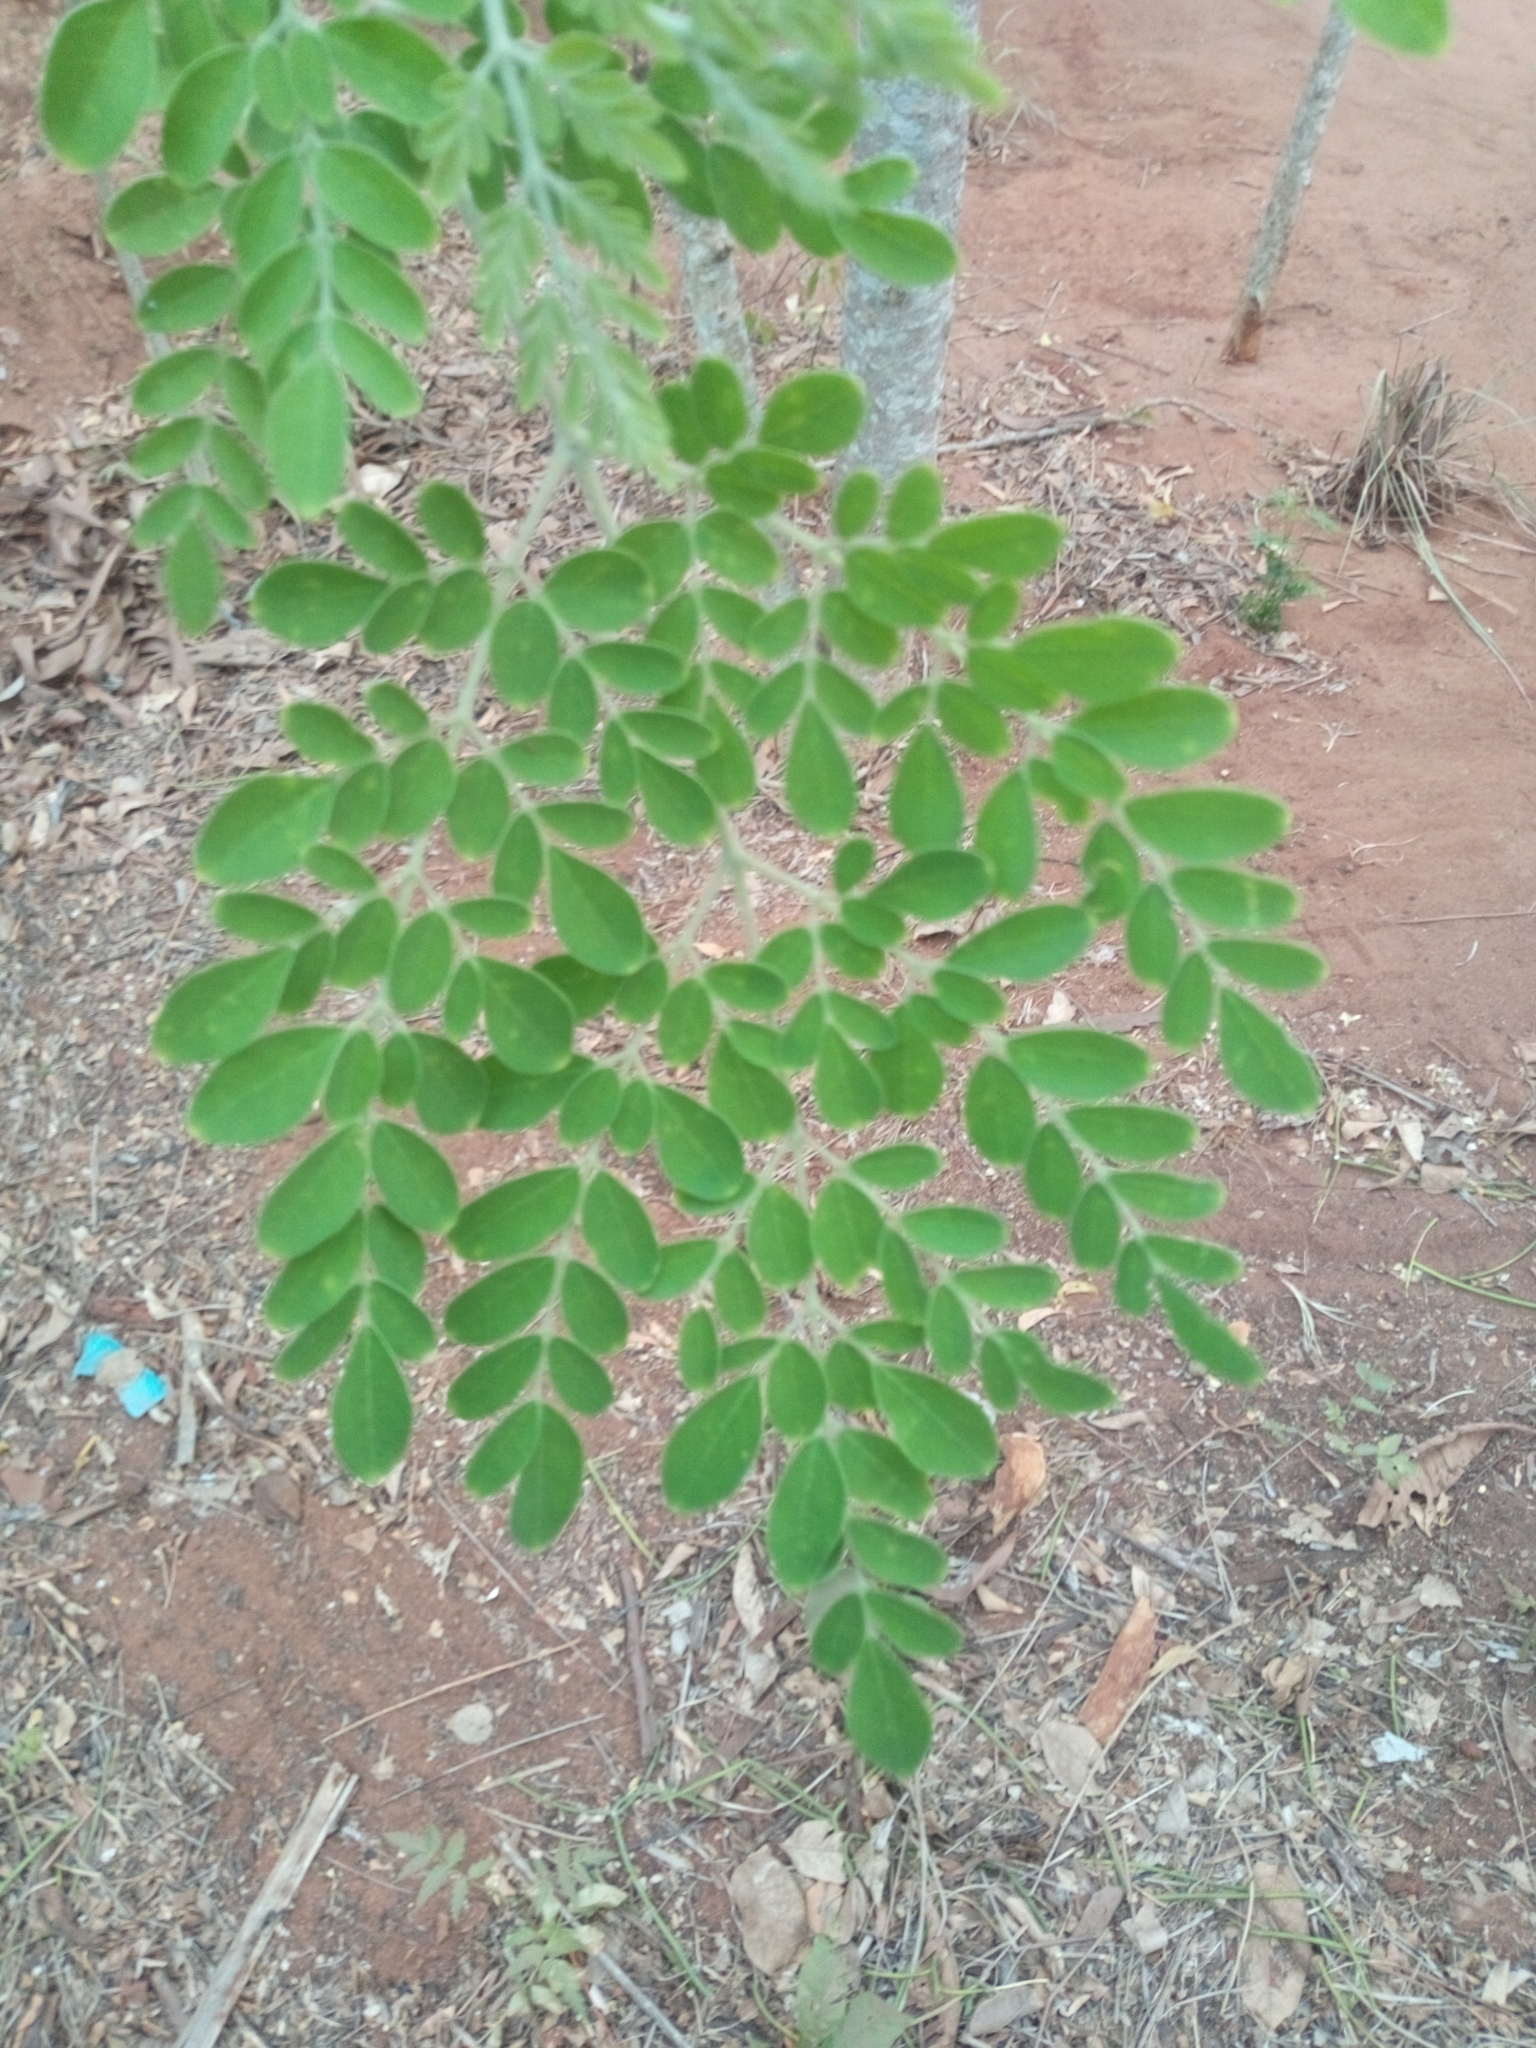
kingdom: Plantae
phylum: Tracheophyta
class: Magnoliopsida
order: Brassicales
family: Moringaceae
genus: Moringa
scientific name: Moringa oleifera
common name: Horseradish-tree
